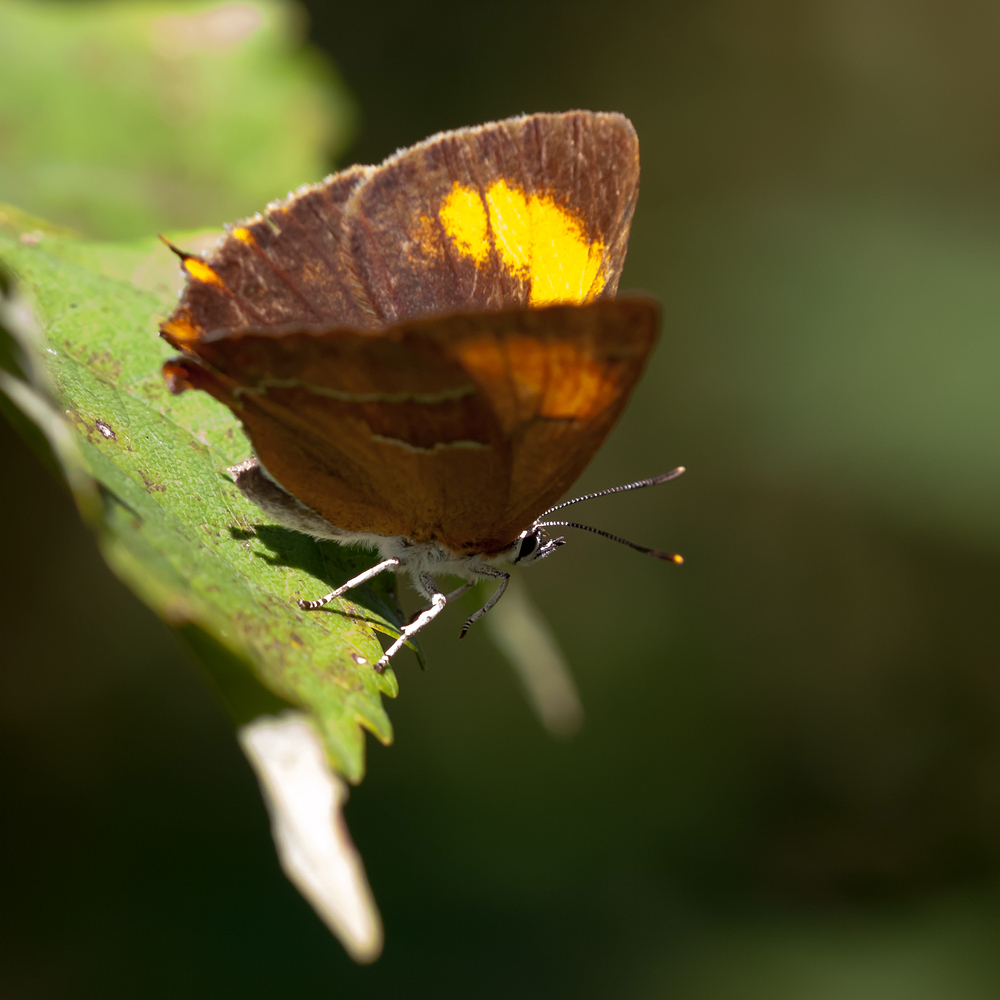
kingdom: Animalia
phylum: Arthropoda
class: Insecta
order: Lepidoptera
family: Lycaenidae
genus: Thecla
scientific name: Thecla betulae
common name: Brown hairstreak
